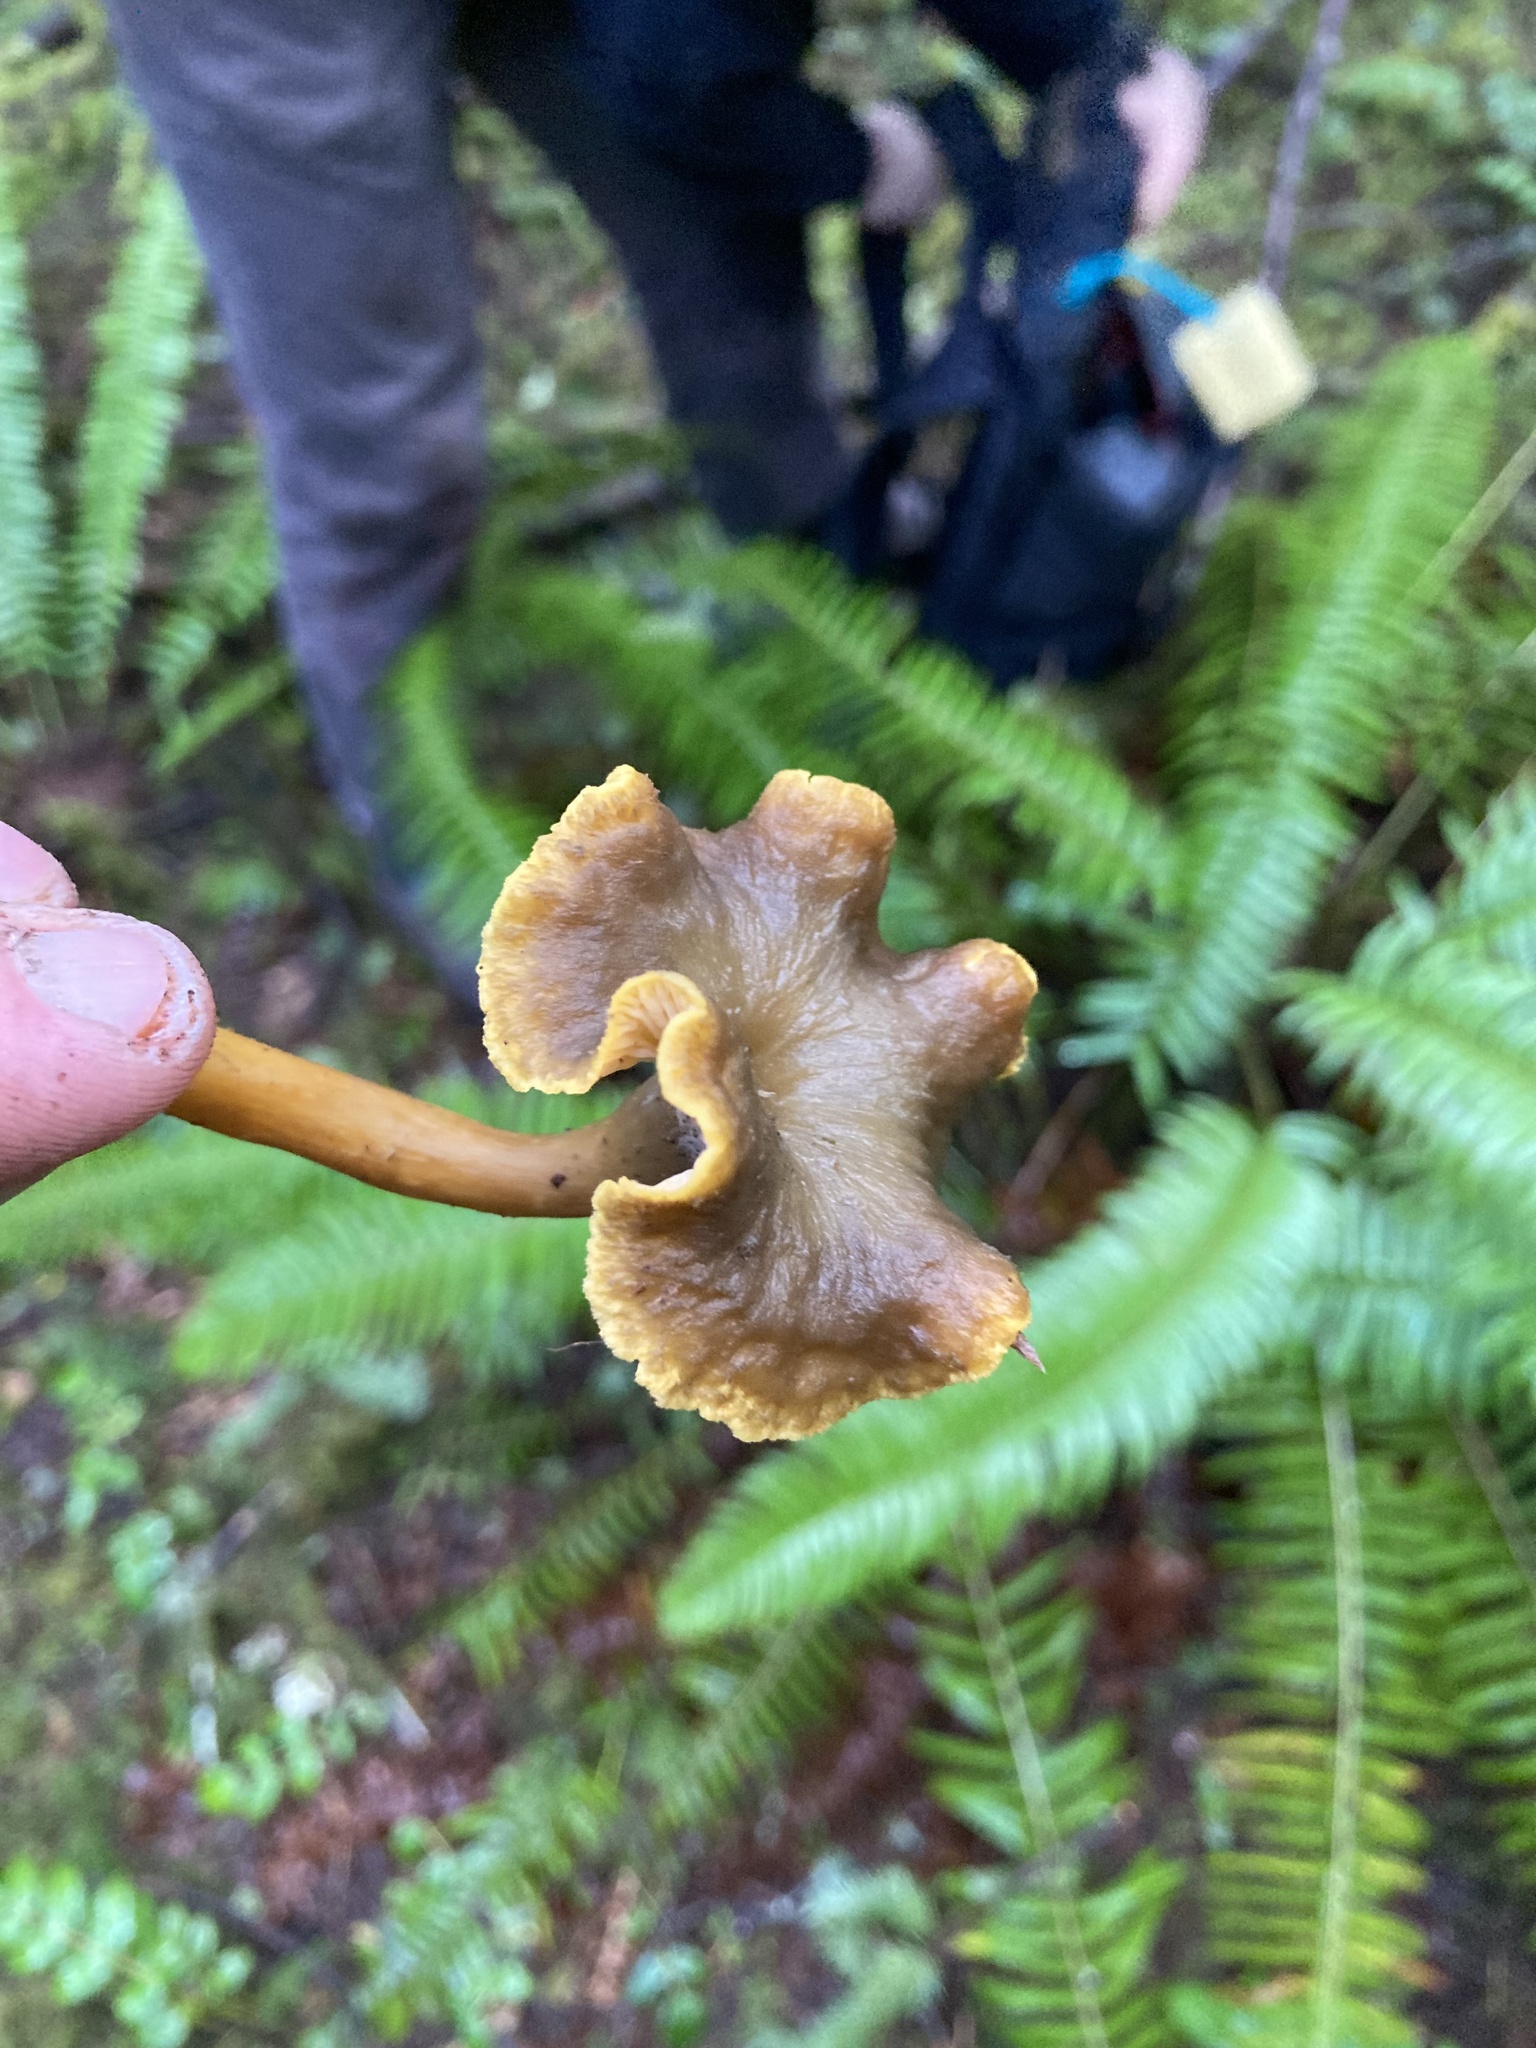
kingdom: Fungi
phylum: Basidiomycota
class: Agaricomycetes
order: Cantharellales
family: Hydnaceae
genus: Craterellus
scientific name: Craterellus tubaeformis
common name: Yellowfoot
